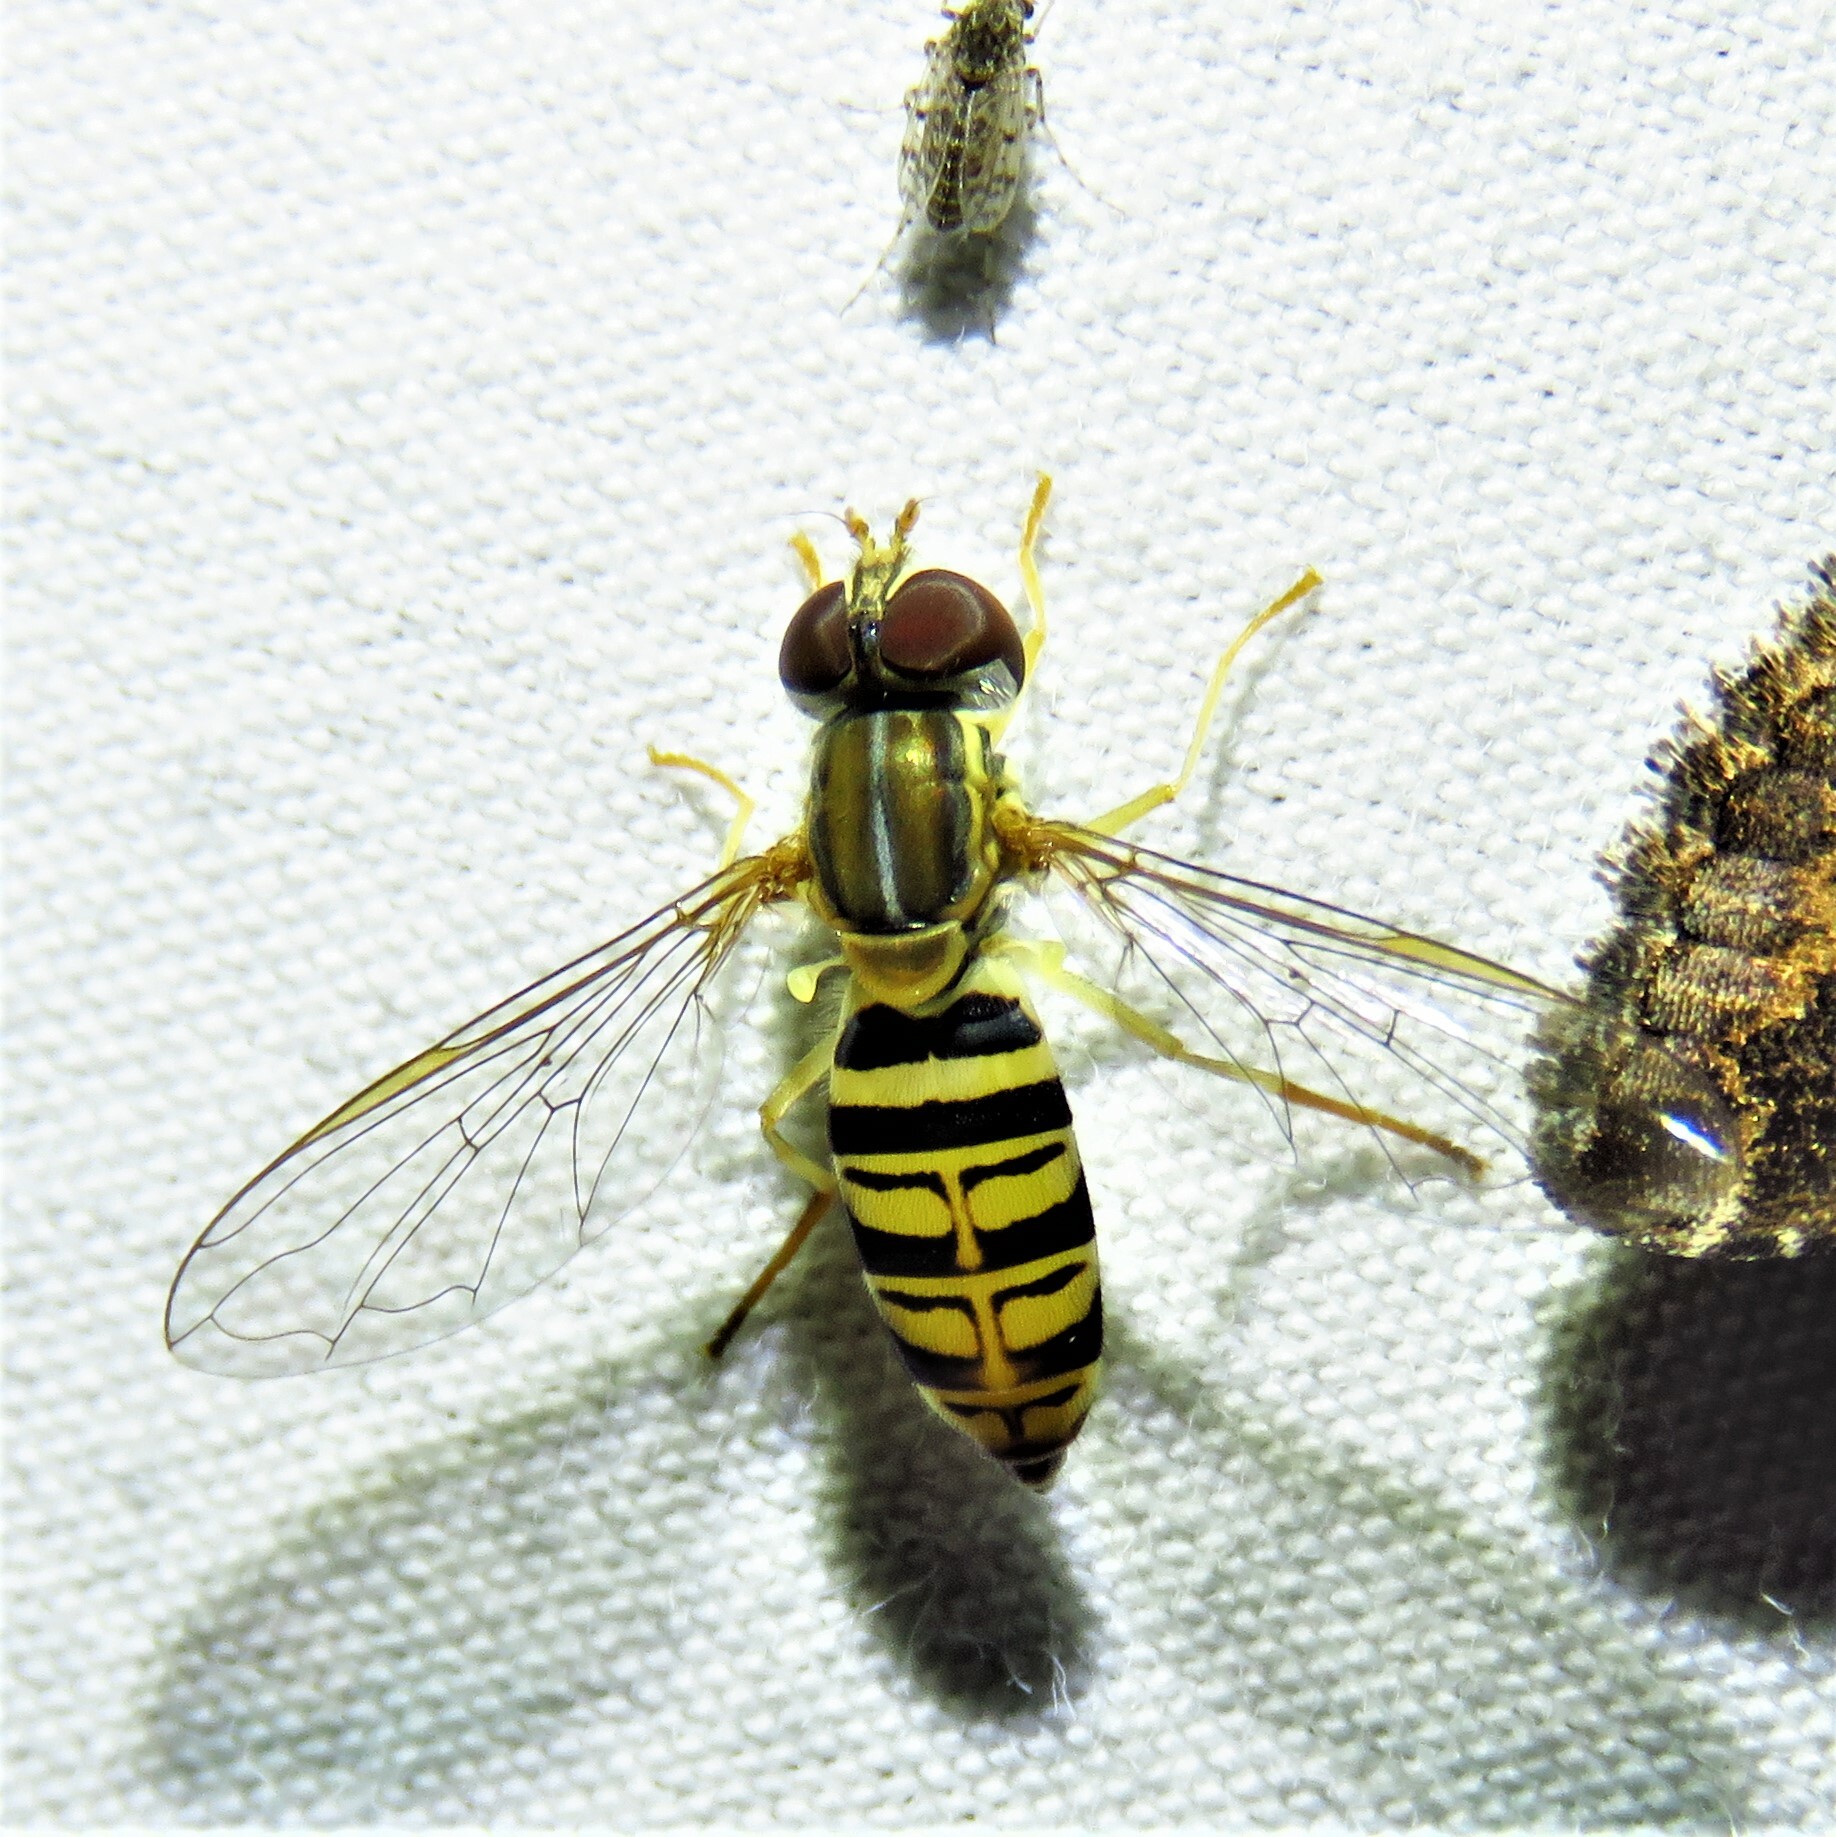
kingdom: Animalia
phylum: Arthropoda
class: Insecta
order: Diptera
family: Syrphidae
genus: Toxomerus
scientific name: Toxomerus politus
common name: Maize calligrapher
